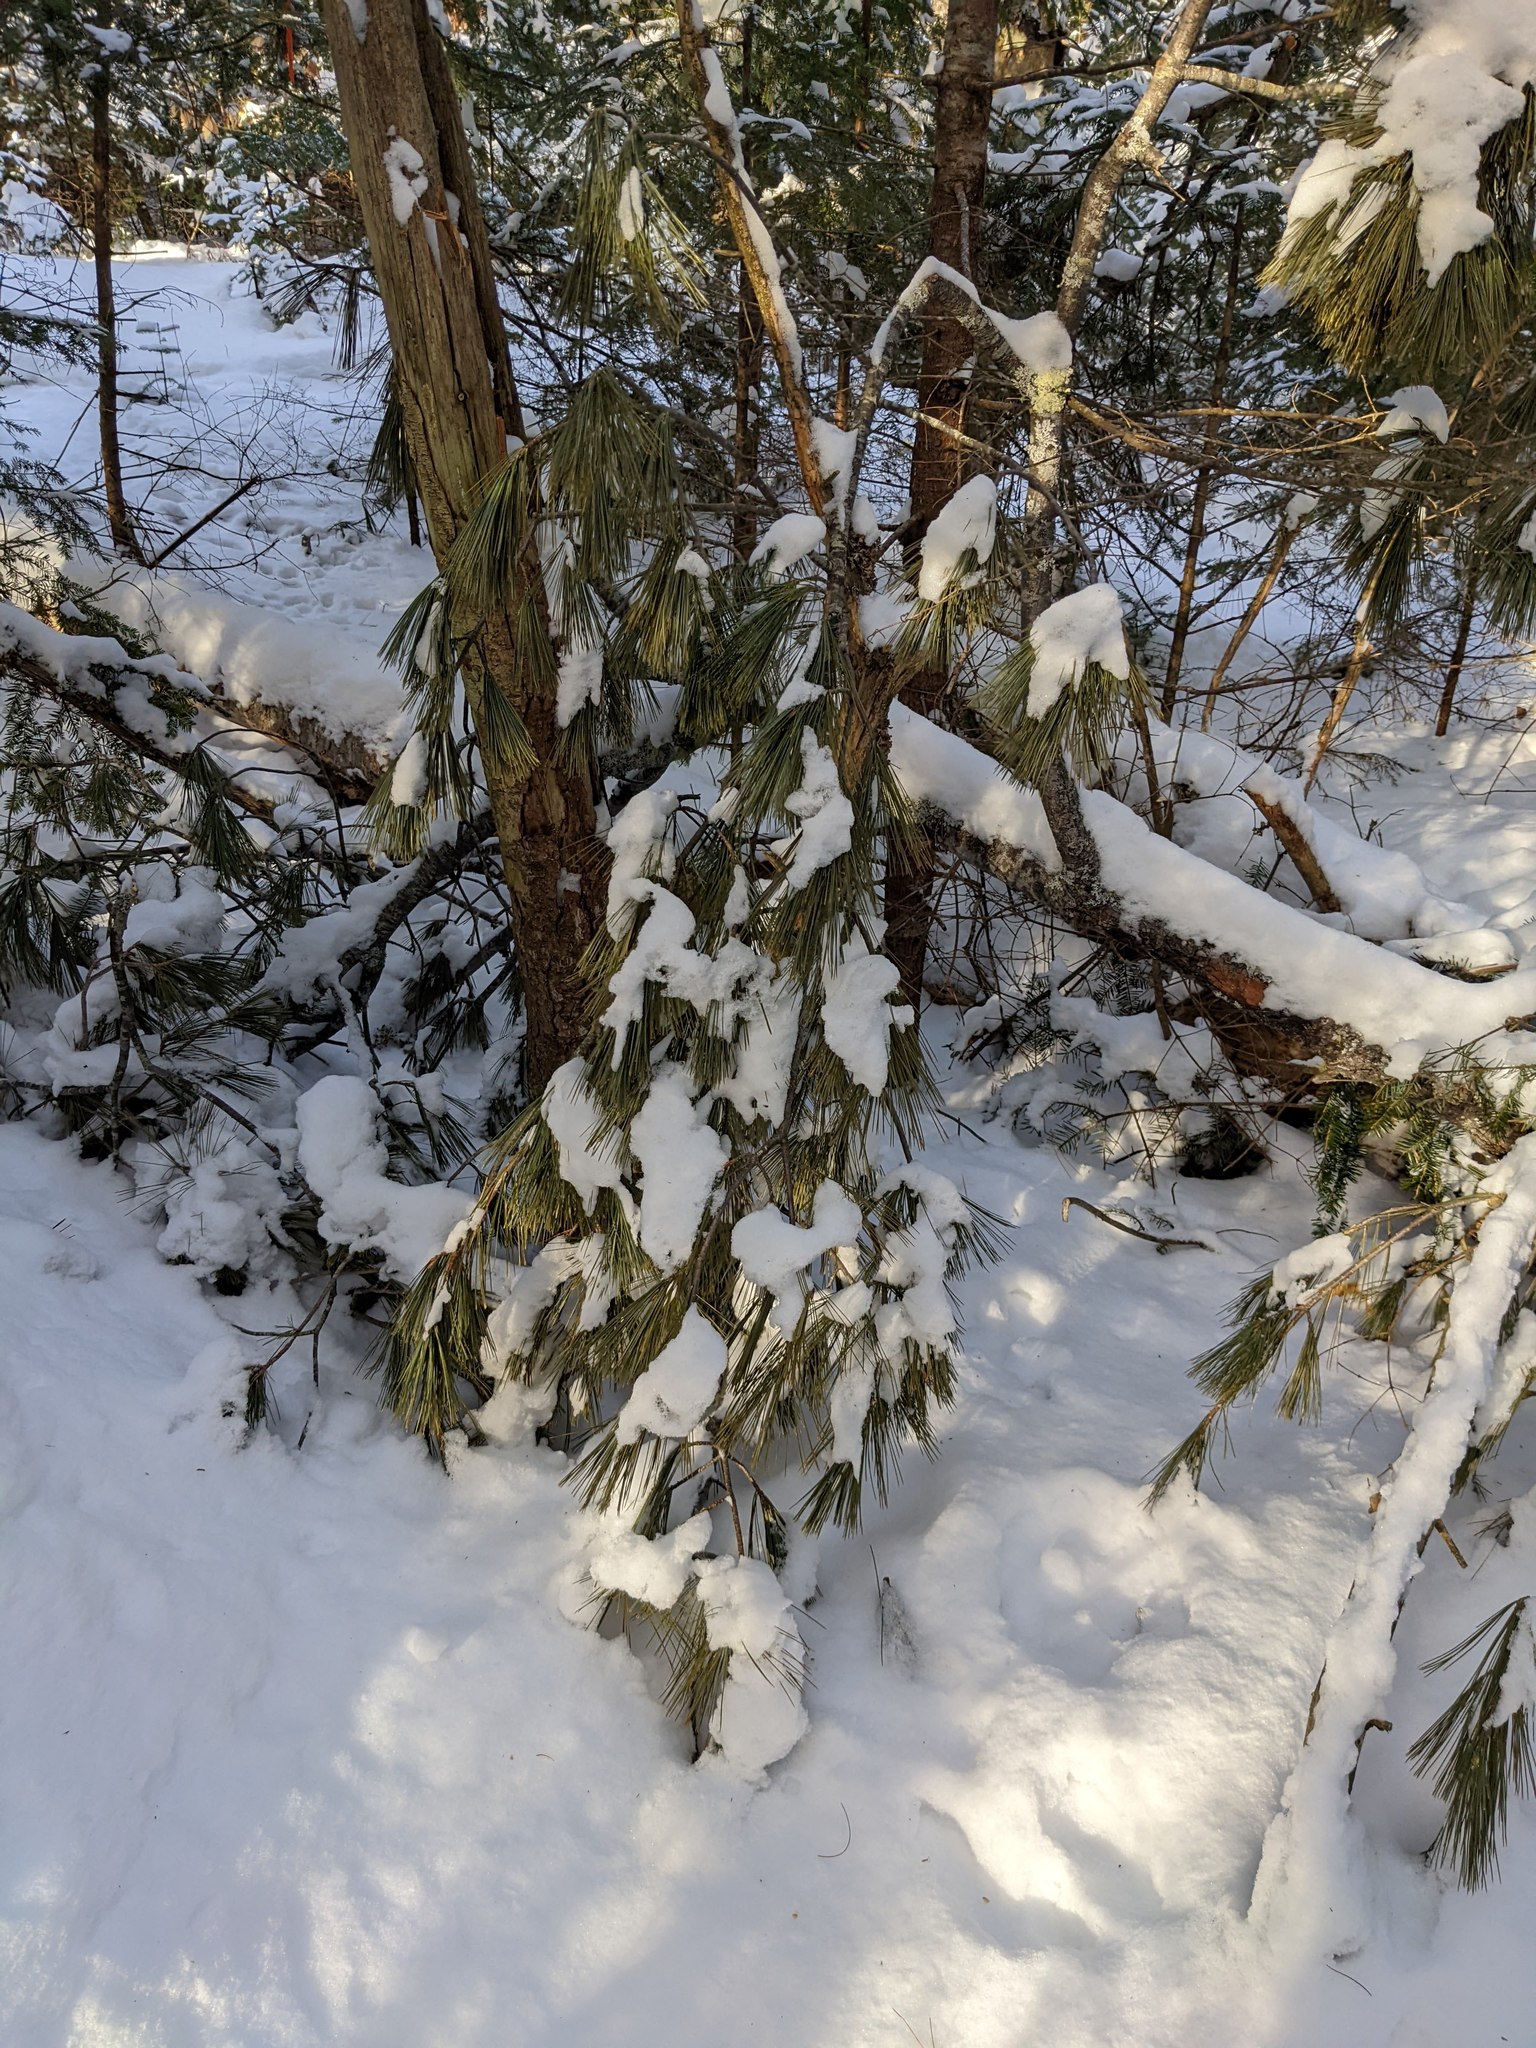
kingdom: Plantae
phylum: Tracheophyta
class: Pinopsida
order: Pinales
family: Pinaceae
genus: Pinus
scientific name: Pinus strobus
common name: Weymouth pine
